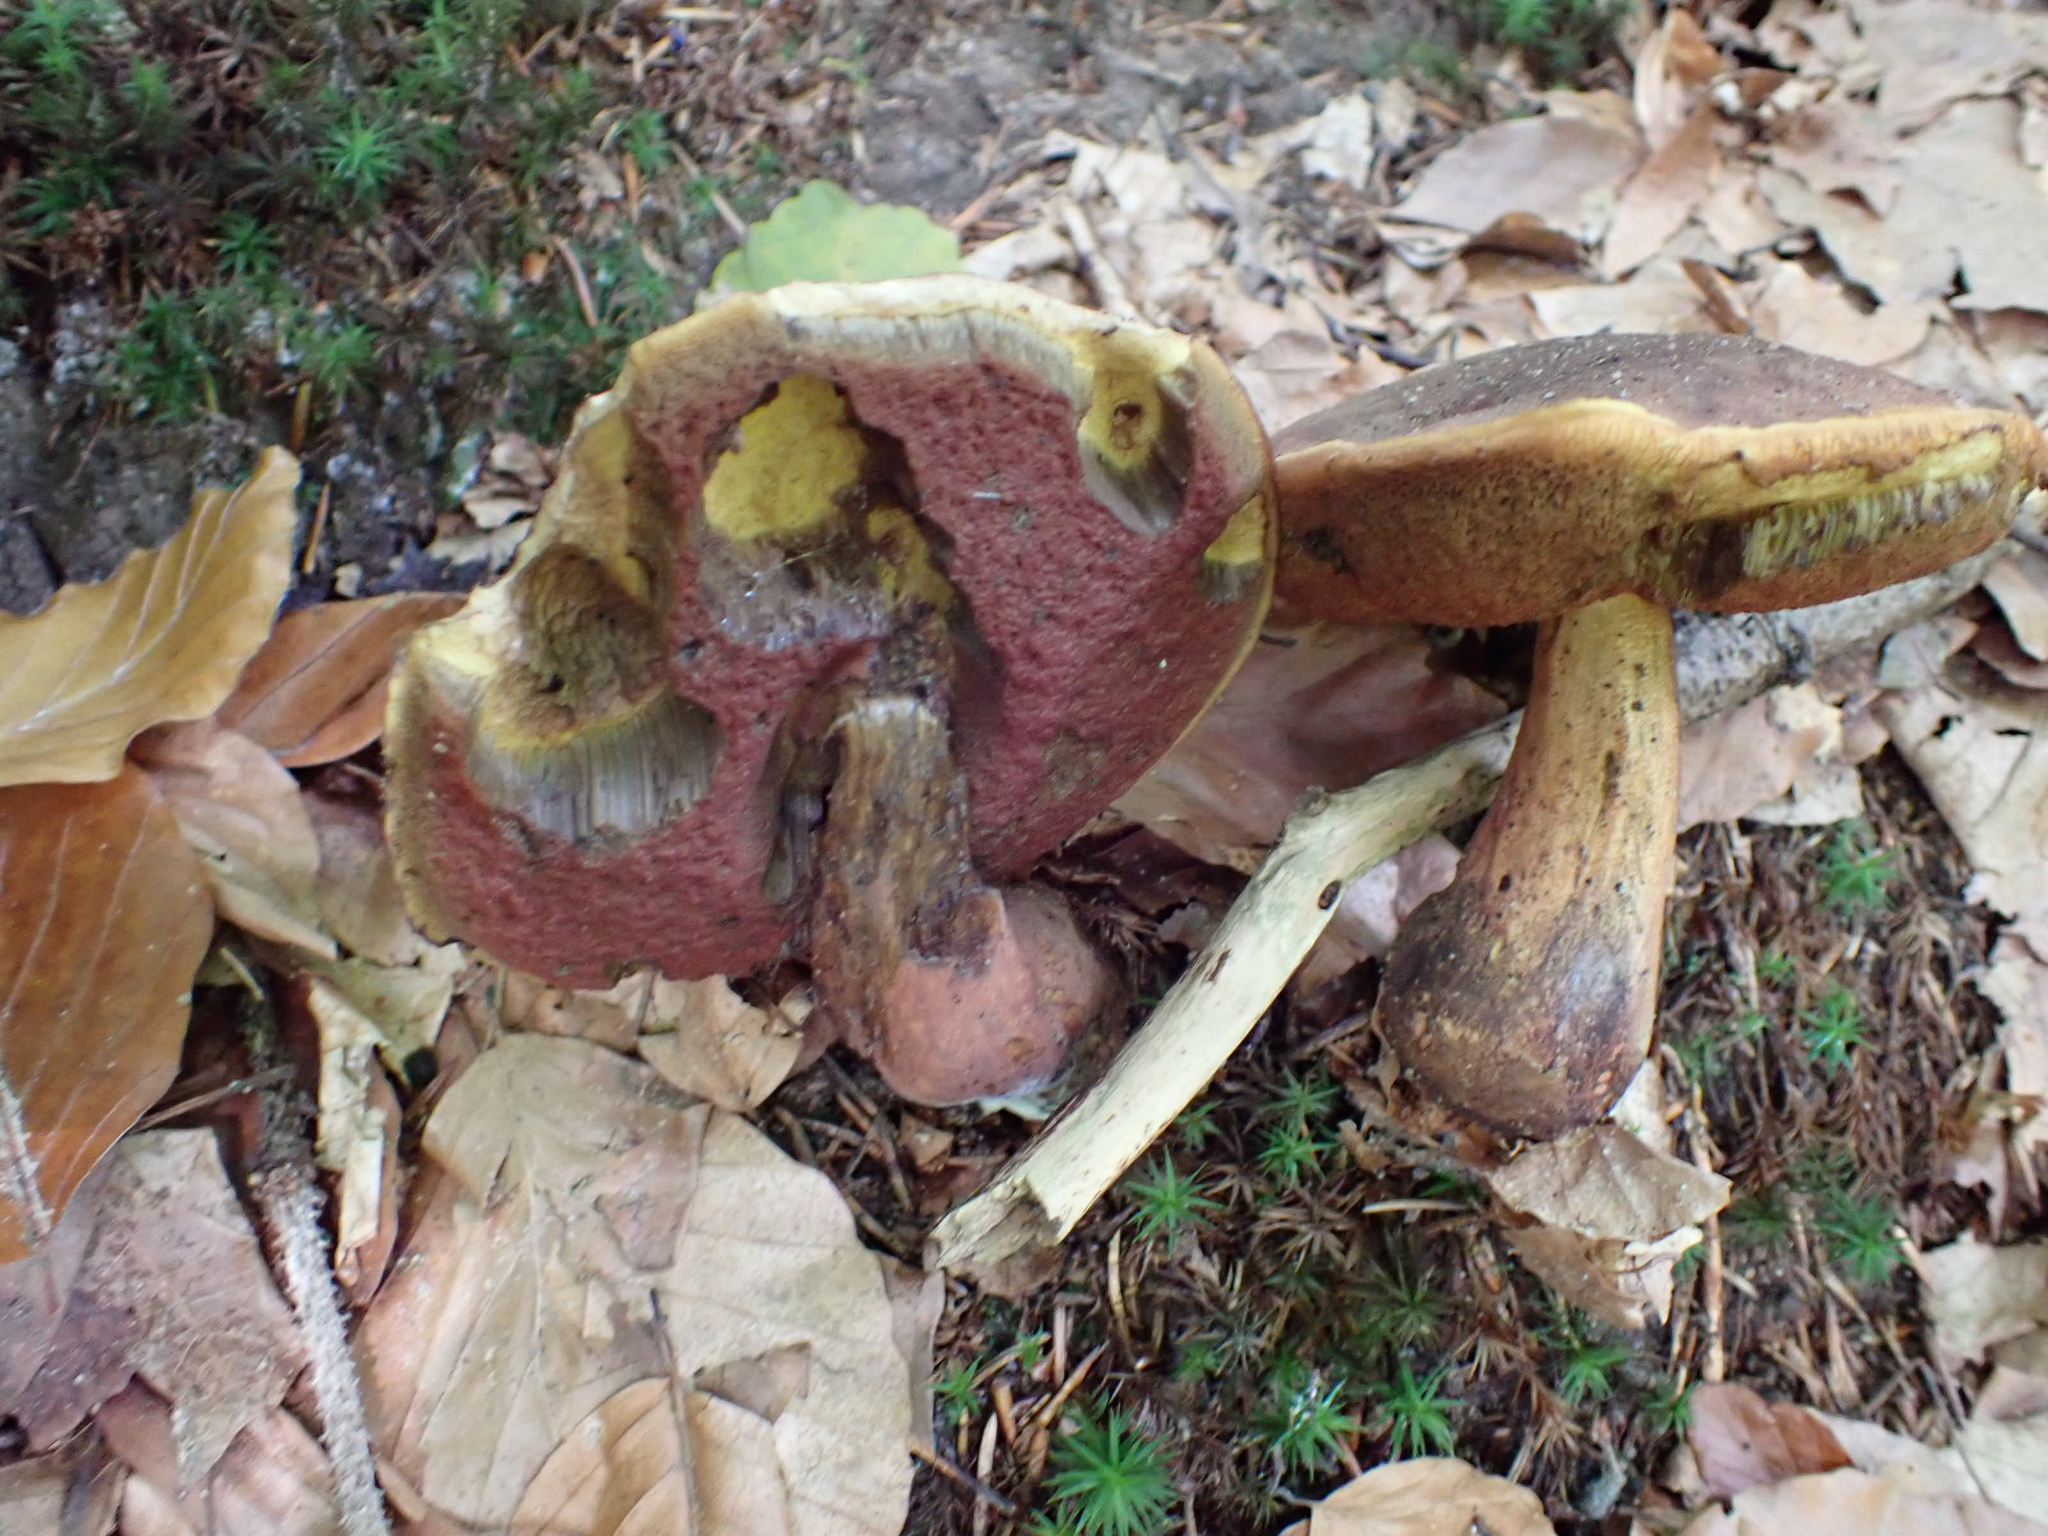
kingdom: Fungi
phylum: Basidiomycota
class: Agaricomycetes
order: Boletales
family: Boletaceae
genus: Neoboletus
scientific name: Neoboletus erythropus
